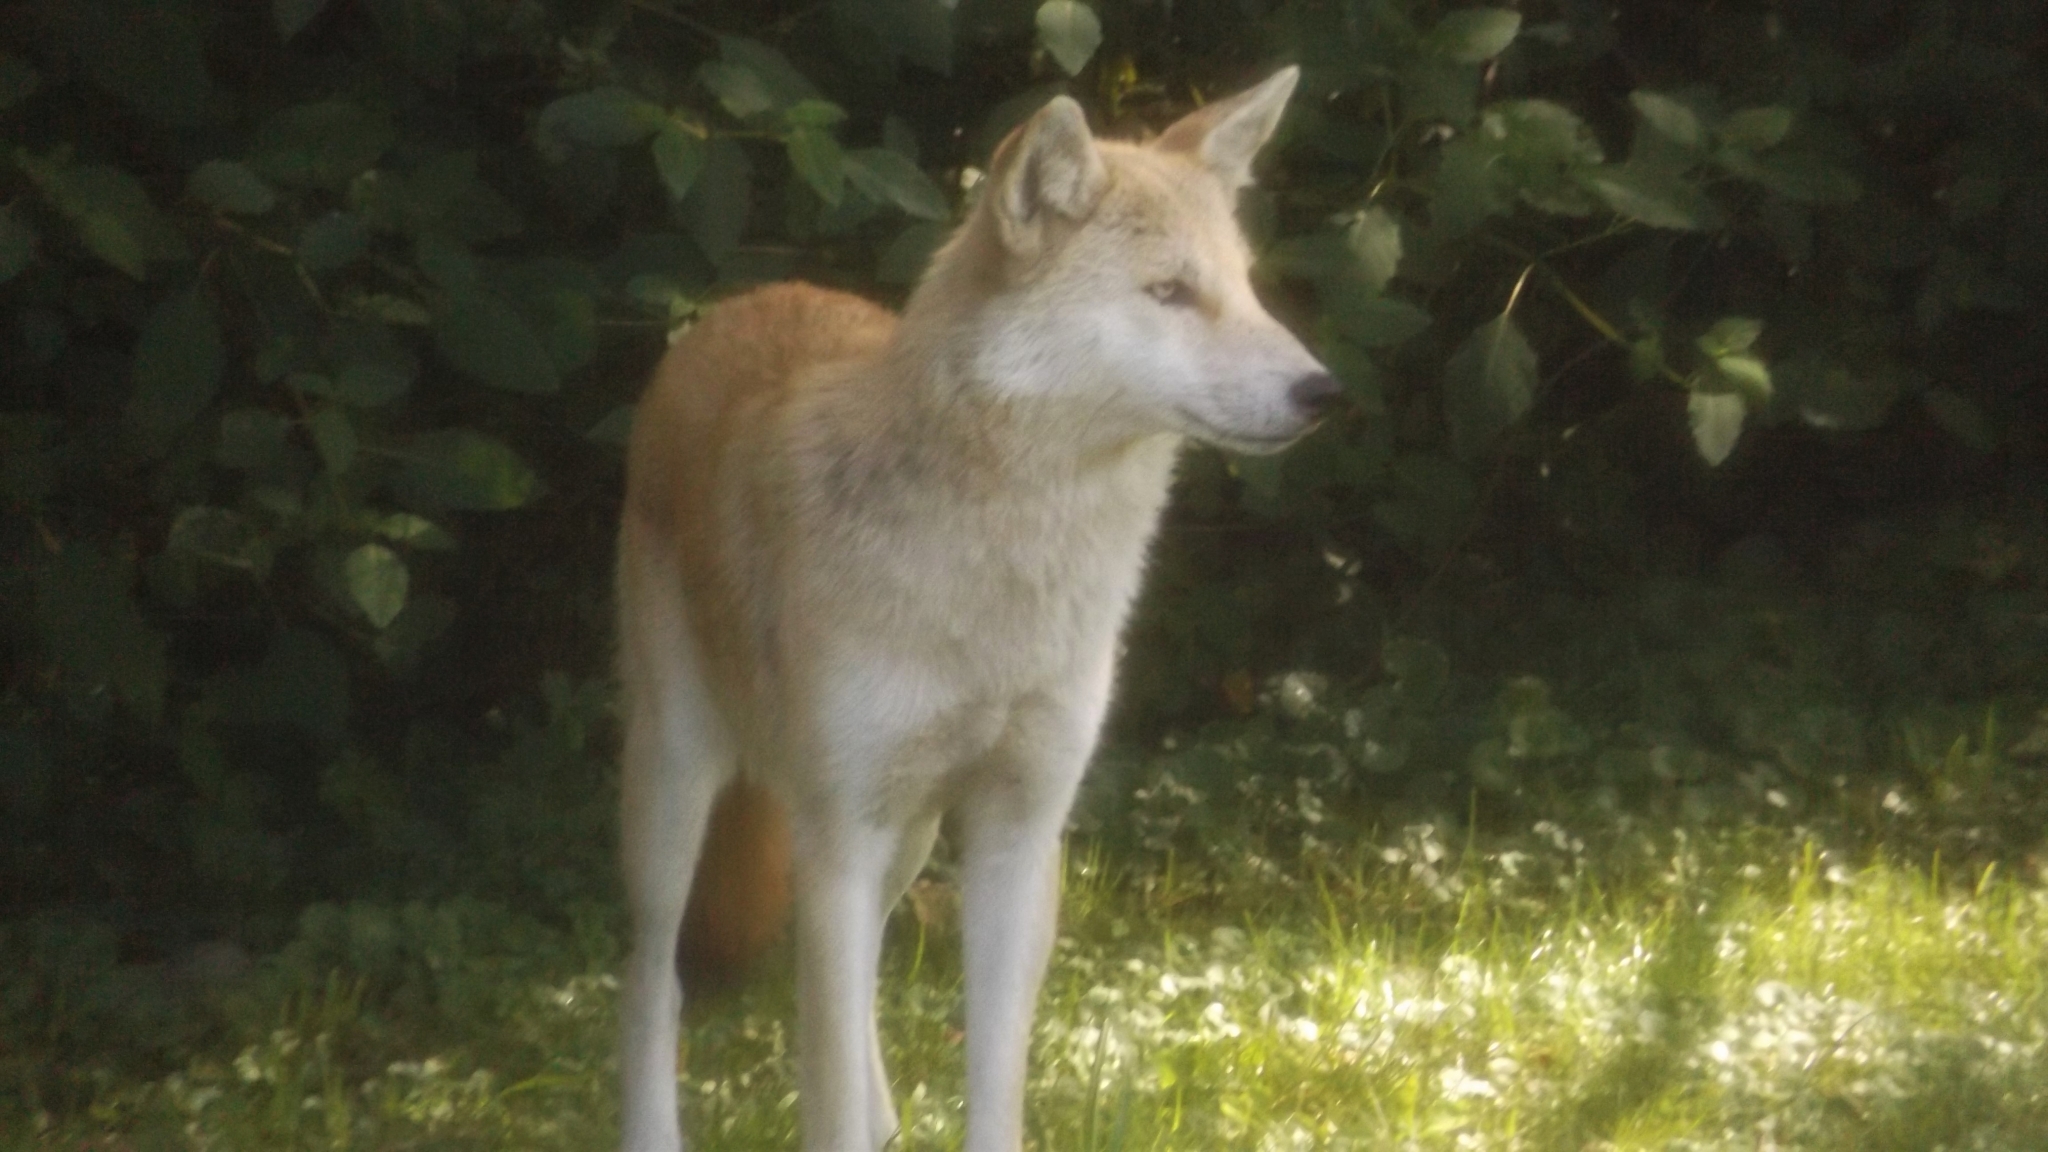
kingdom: Animalia
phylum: Chordata
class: Mammalia
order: Carnivora
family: Canidae
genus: Canis
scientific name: Canis latrans
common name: Coyote
